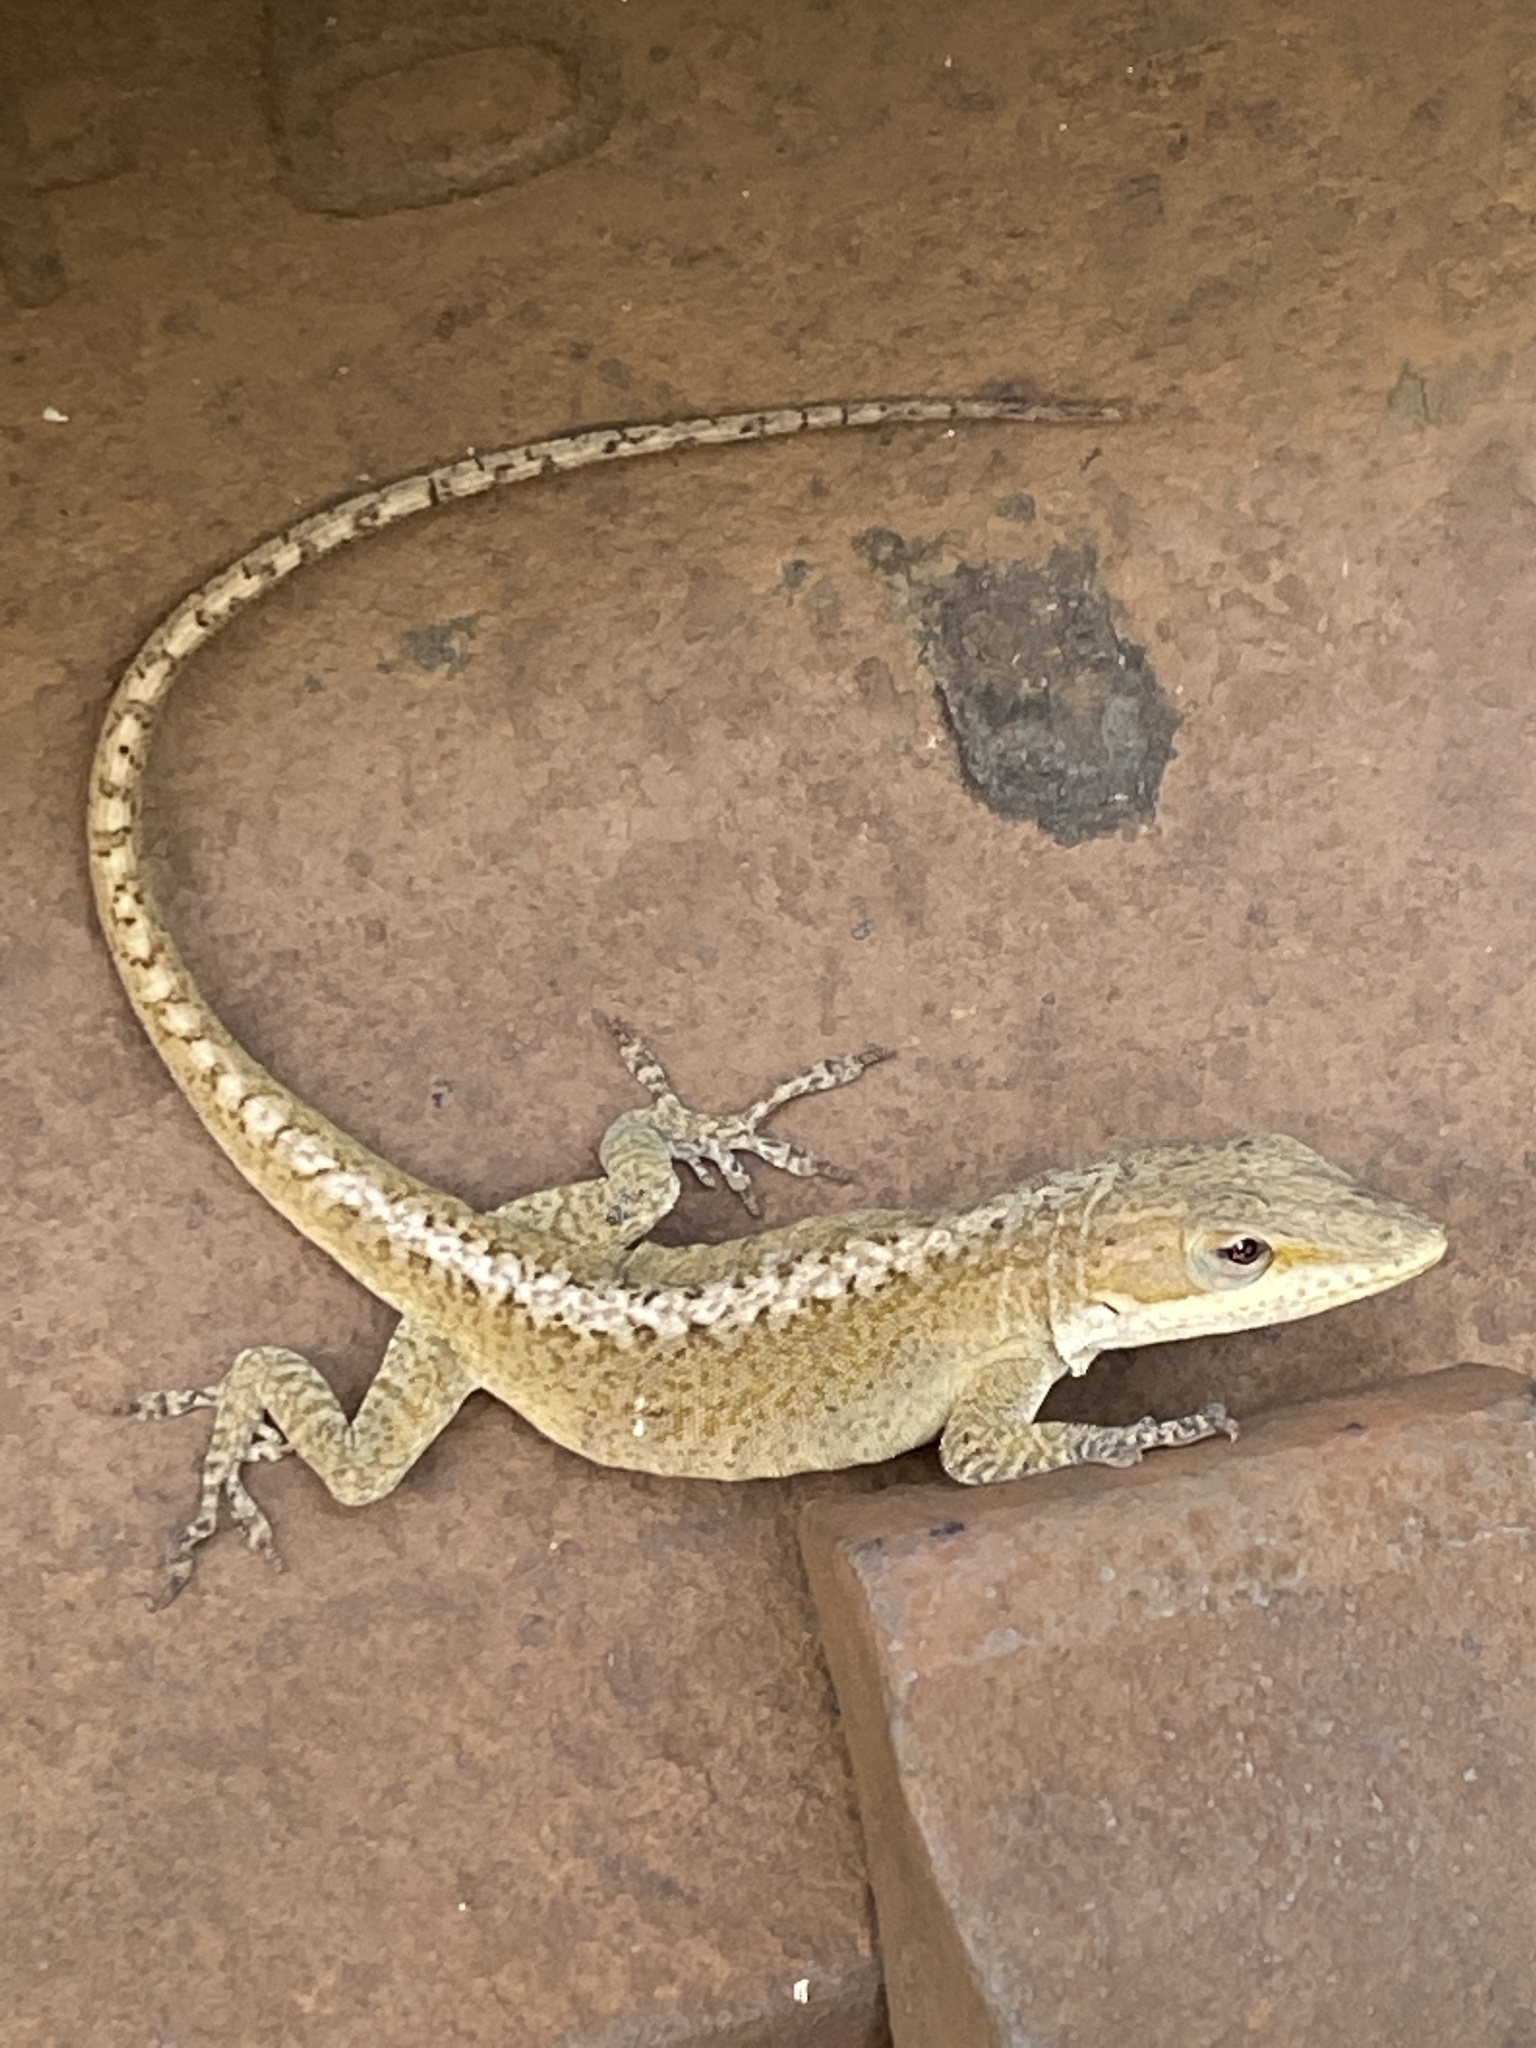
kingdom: Animalia
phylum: Chordata
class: Squamata
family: Dactyloidae
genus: Anolis
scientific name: Anolis carolinensis
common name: Green anole
